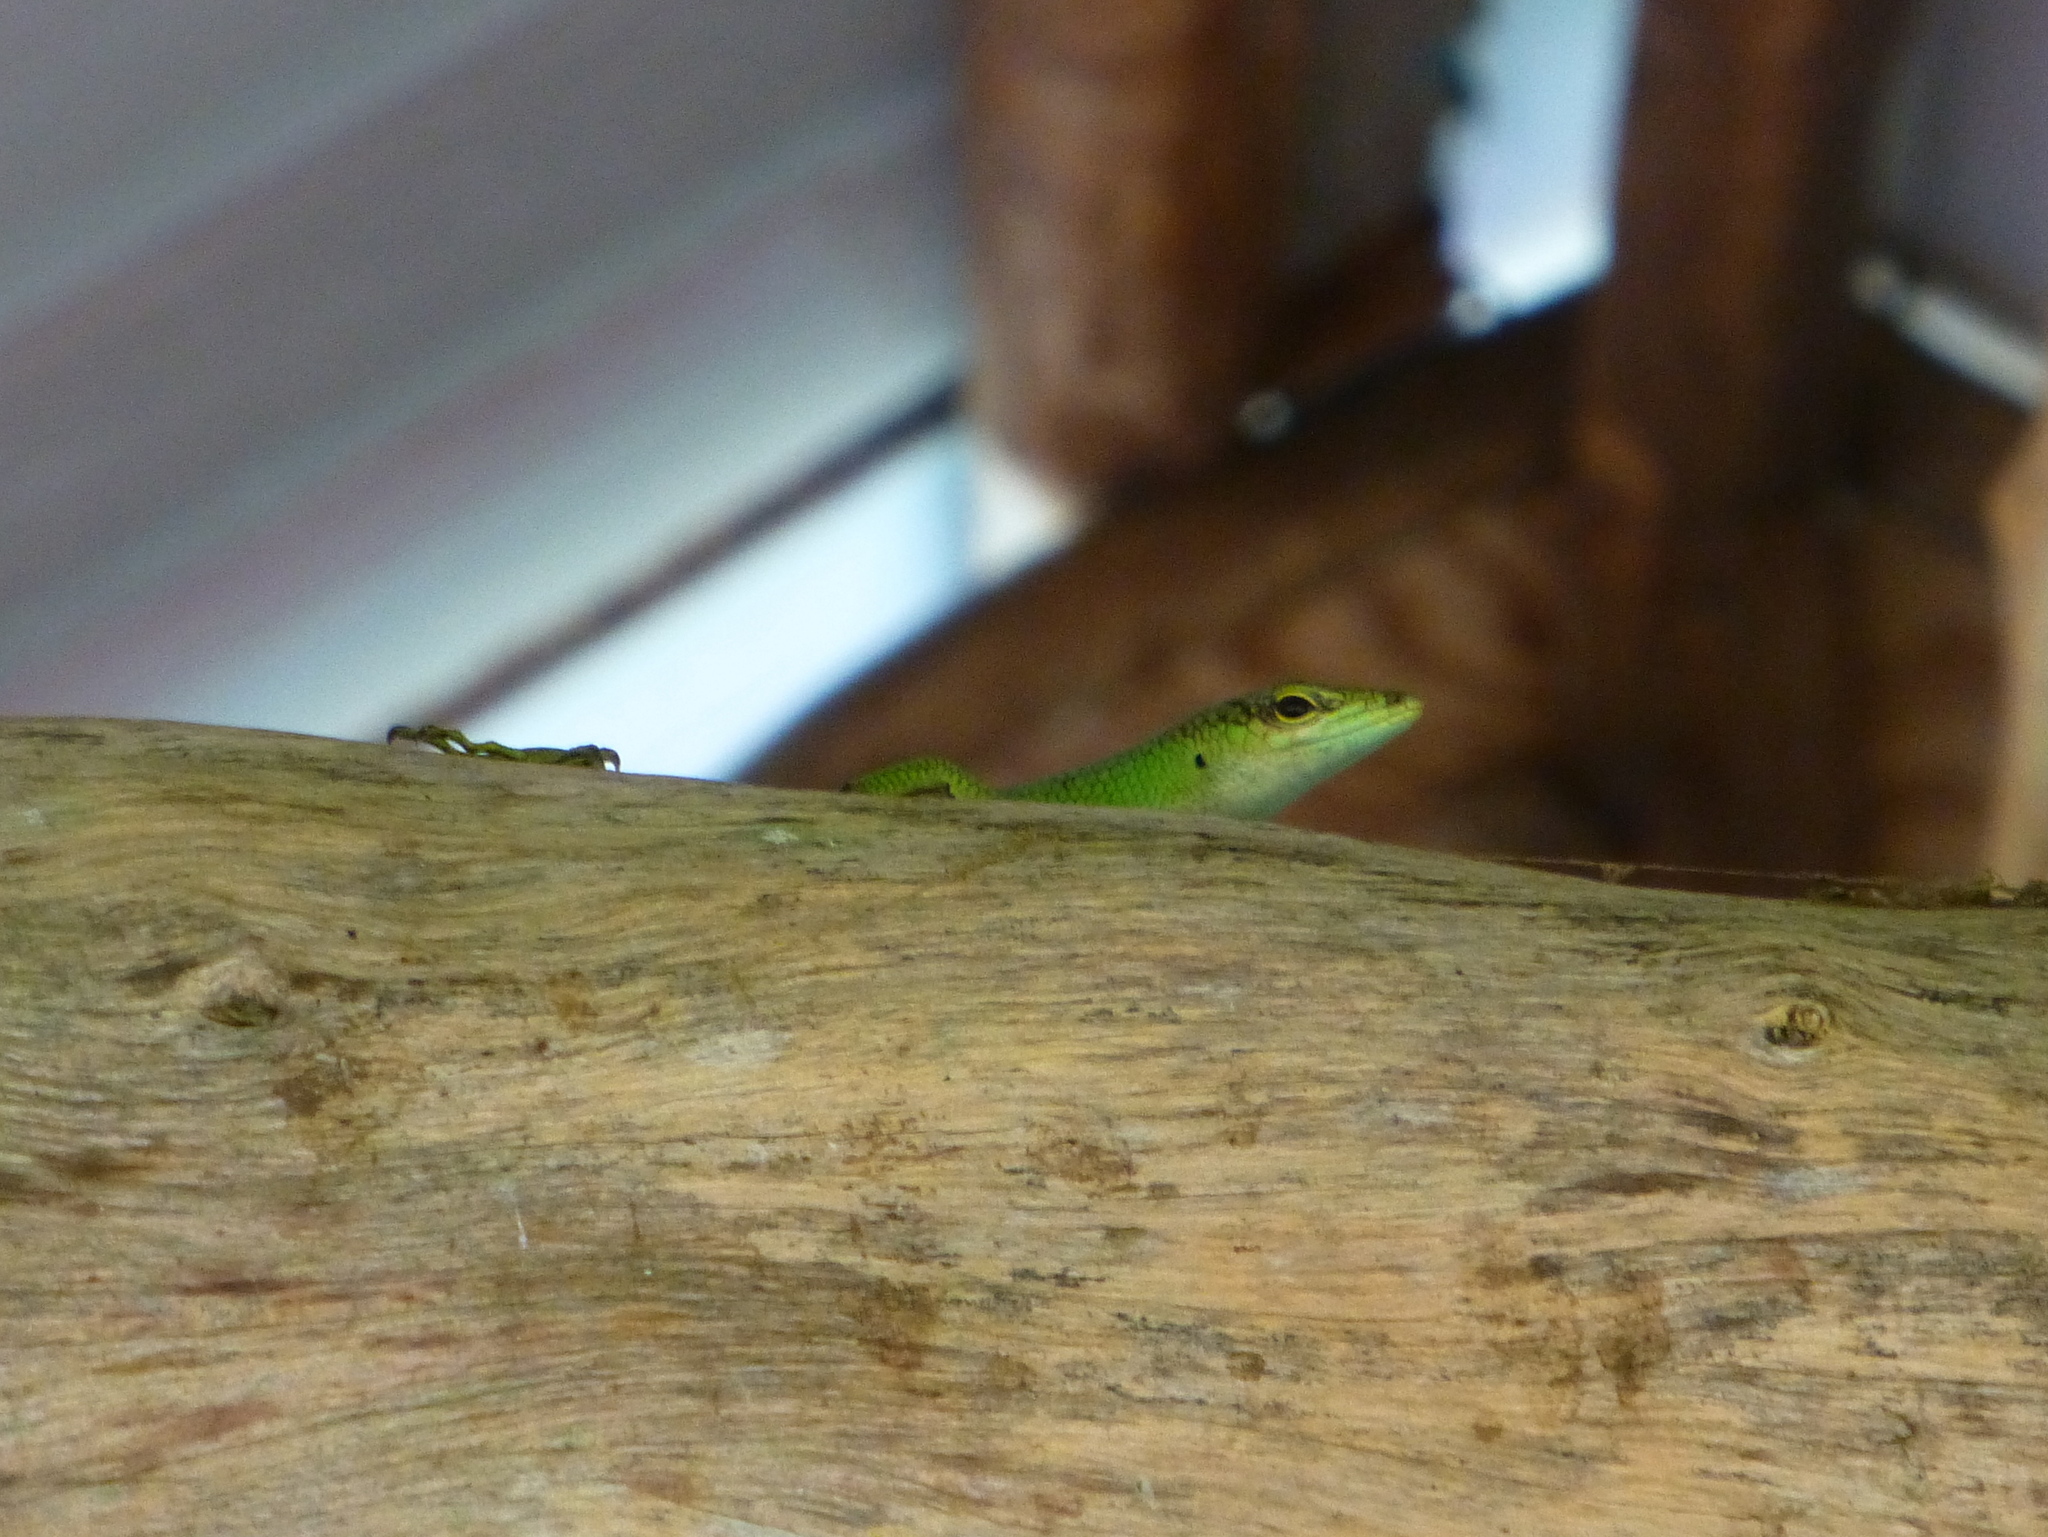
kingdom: Animalia
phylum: Chordata
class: Squamata
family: Scincidae
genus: Lamprolepis
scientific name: Lamprolepis smaragdina
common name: Emerald skink
